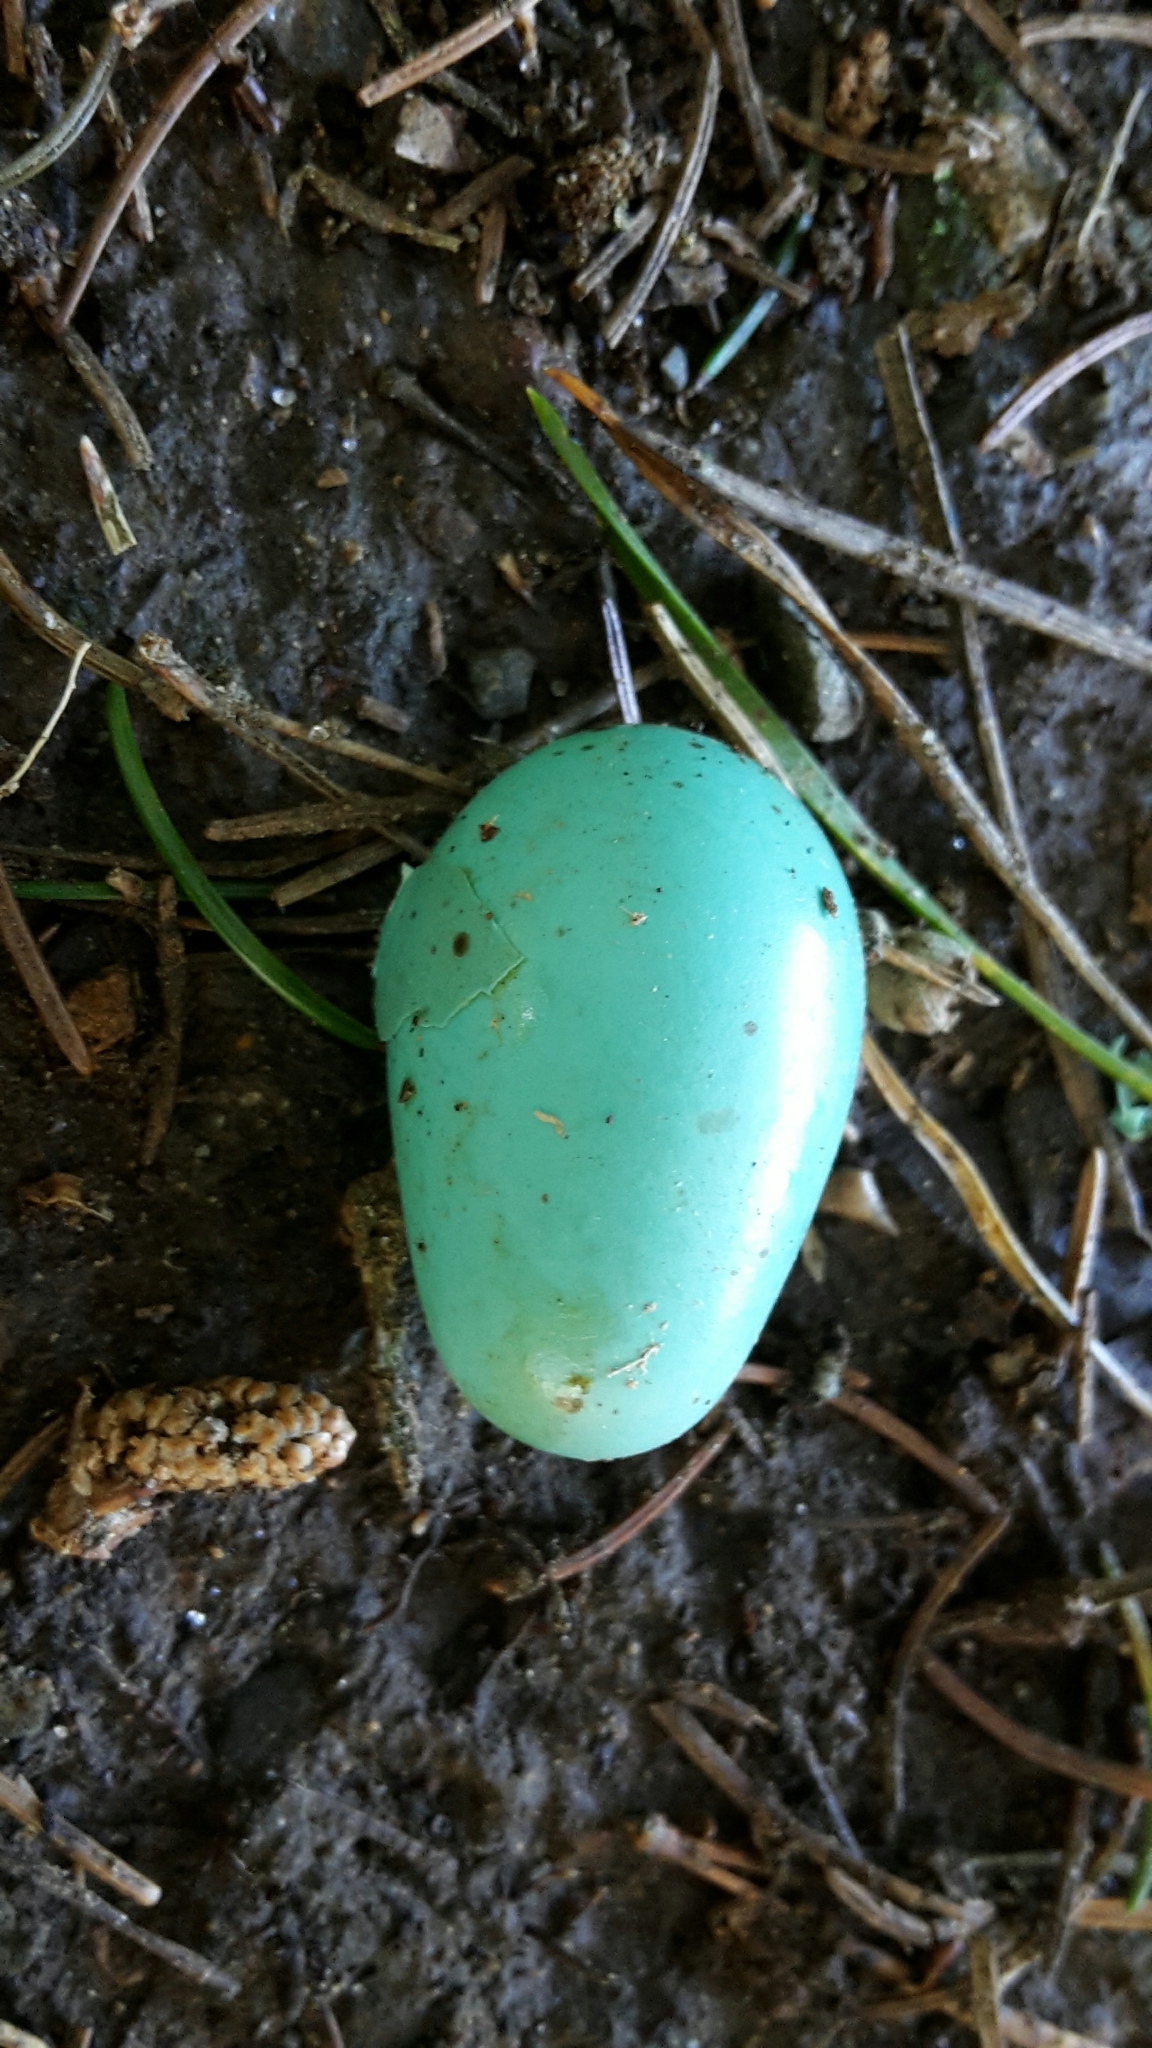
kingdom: Animalia
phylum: Chordata
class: Aves
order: Passeriformes
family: Turdidae
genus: Turdus
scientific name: Turdus philomelos
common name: Song thrush
